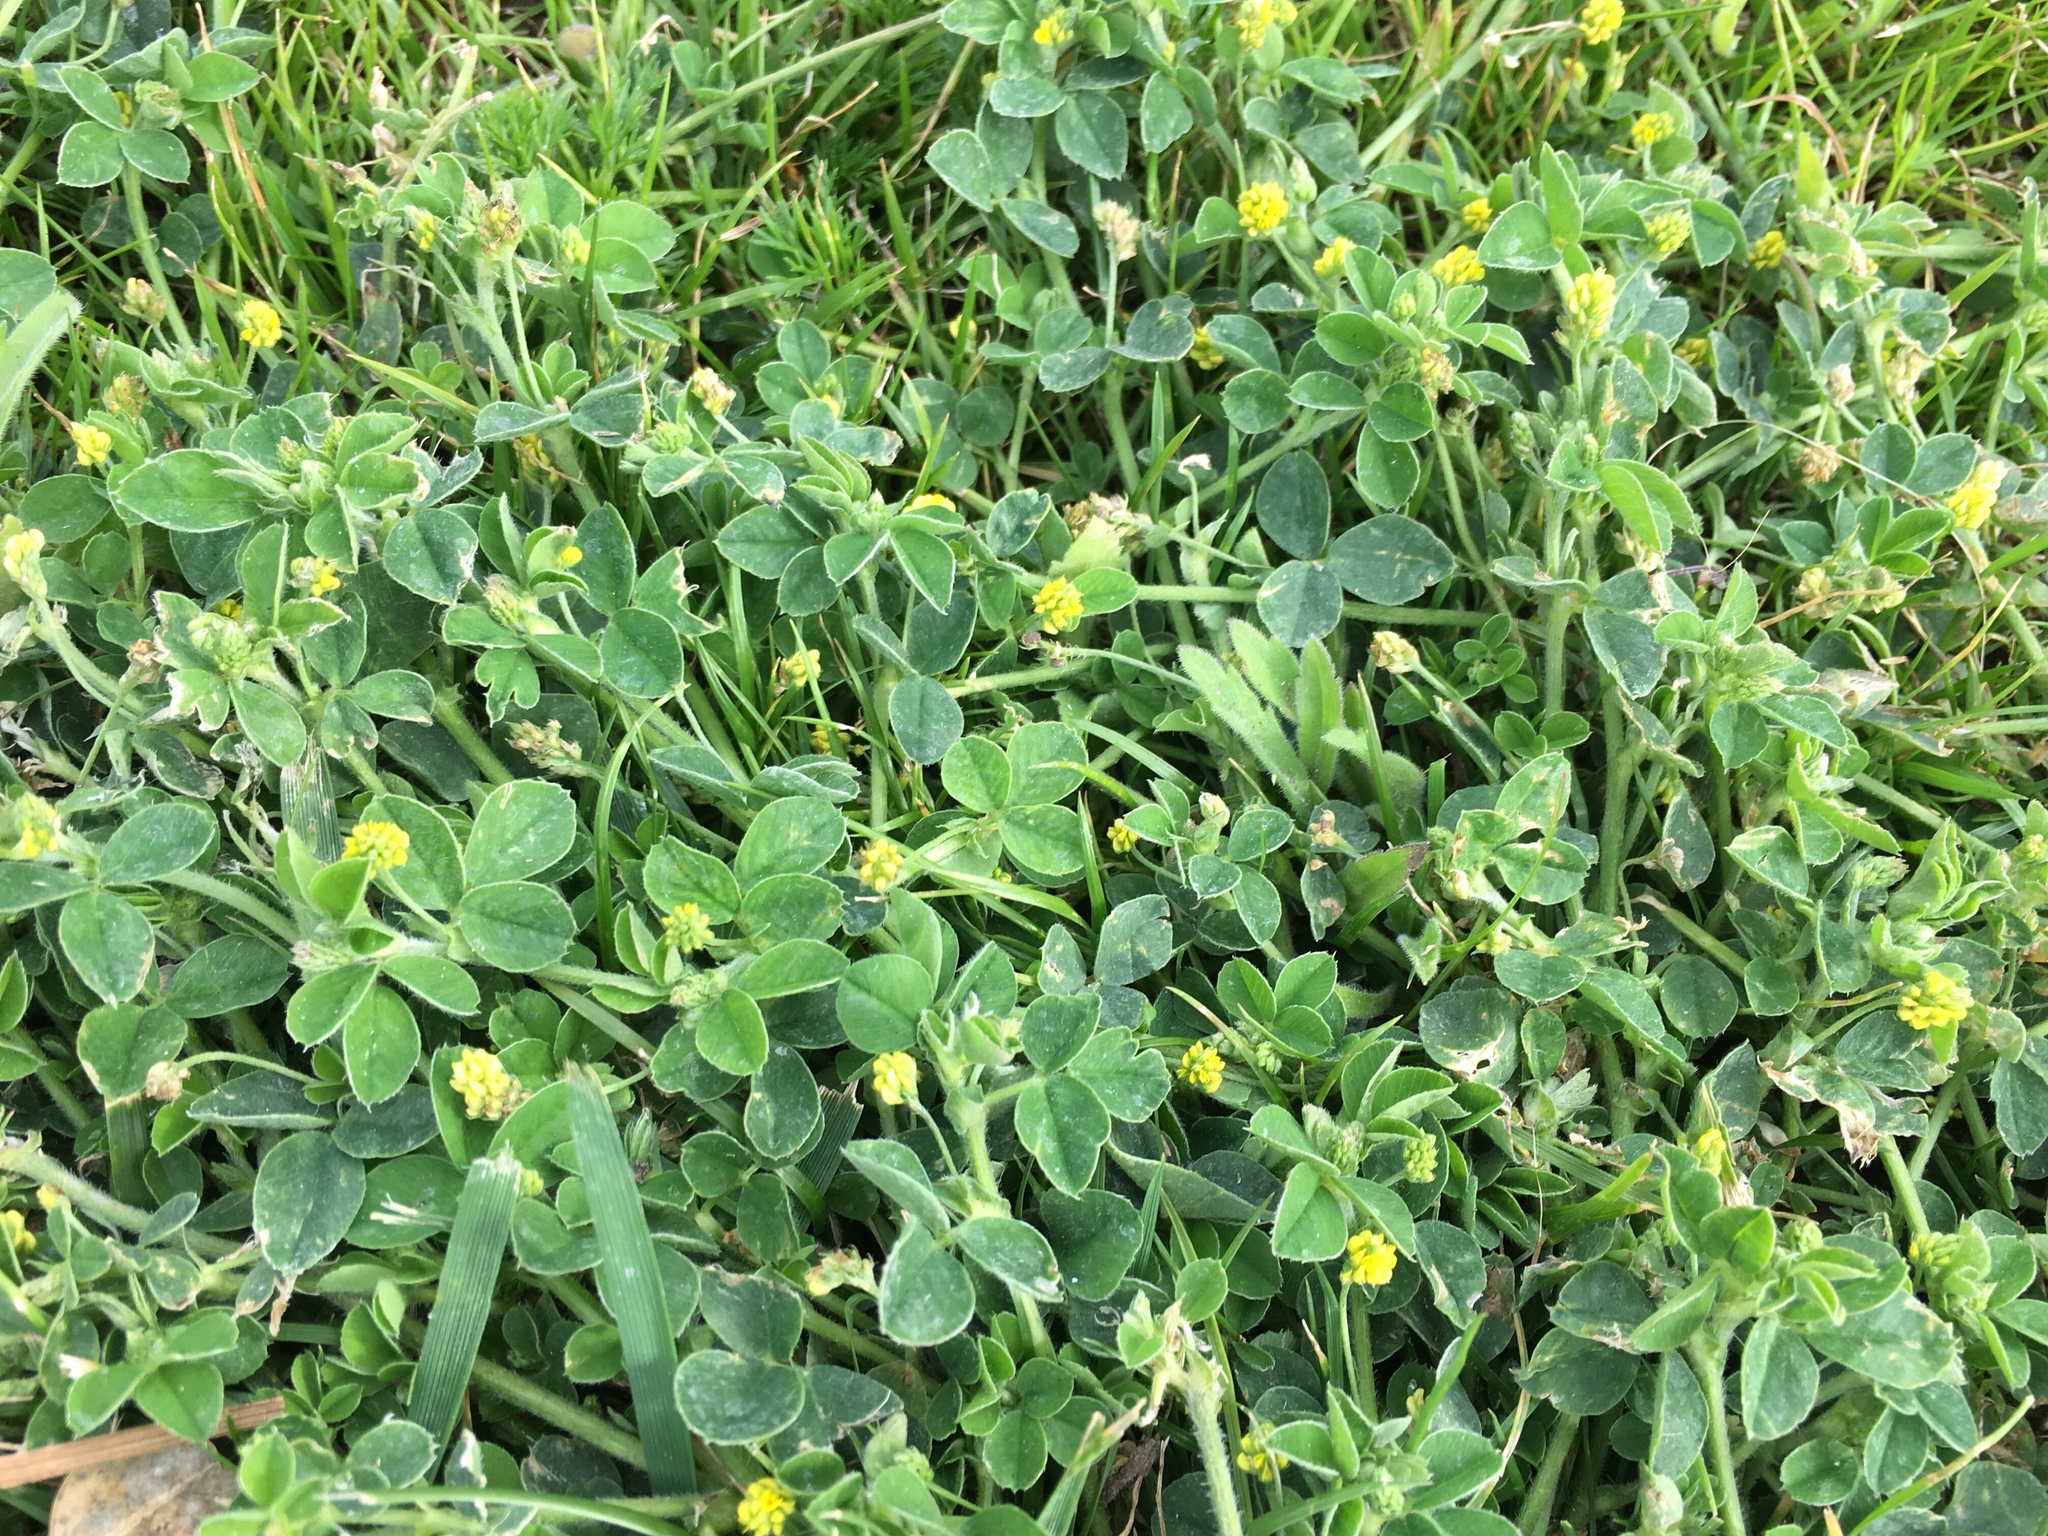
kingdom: Plantae
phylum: Tracheophyta
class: Magnoliopsida
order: Fabales
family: Fabaceae
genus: Medicago
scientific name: Medicago lupulina
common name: Black medick
